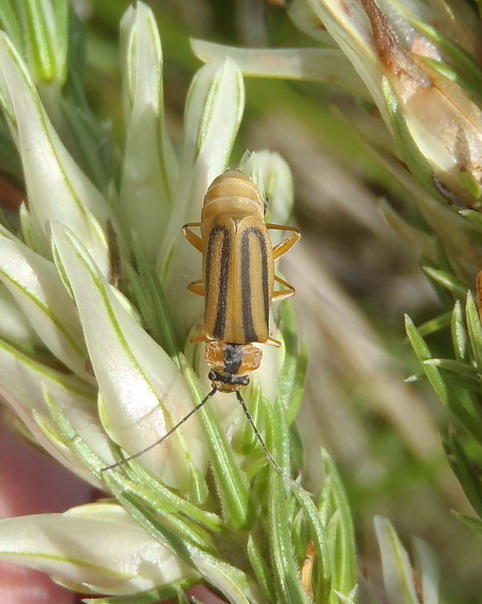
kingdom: Animalia
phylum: Arthropoda
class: Insecta
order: Coleoptera
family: Cantharidae
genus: Afronycha
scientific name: Afronycha
